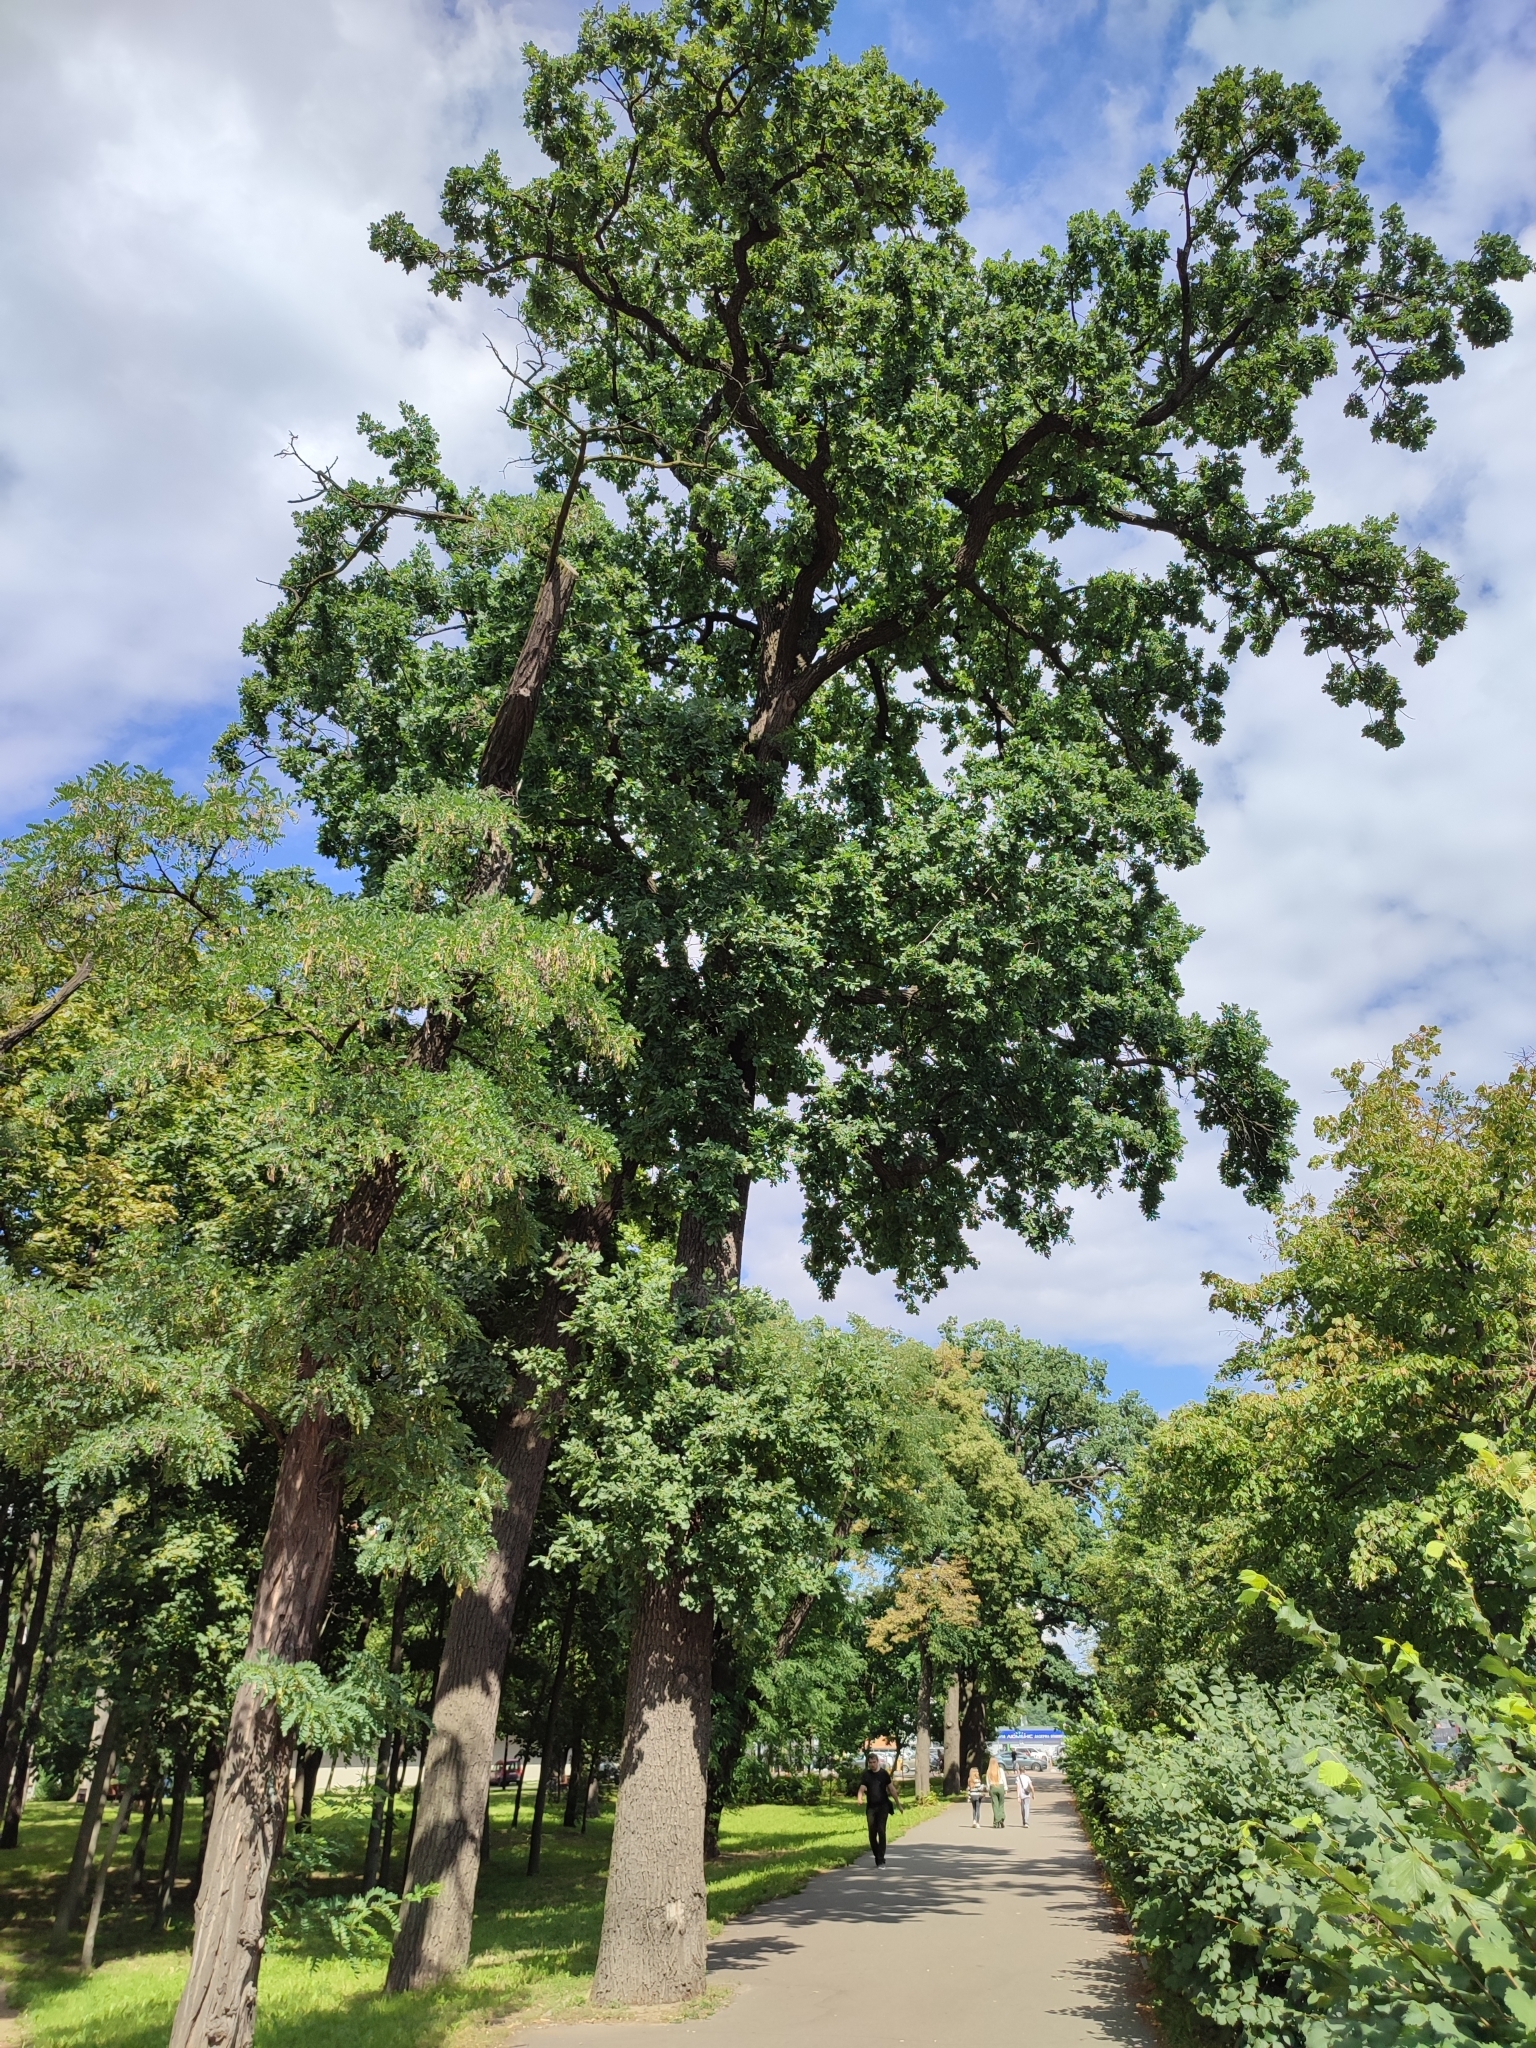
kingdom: Plantae
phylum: Tracheophyta
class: Magnoliopsida
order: Fagales
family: Fagaceae
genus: Quercus
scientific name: Quercus robur
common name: Pedunculate oak
